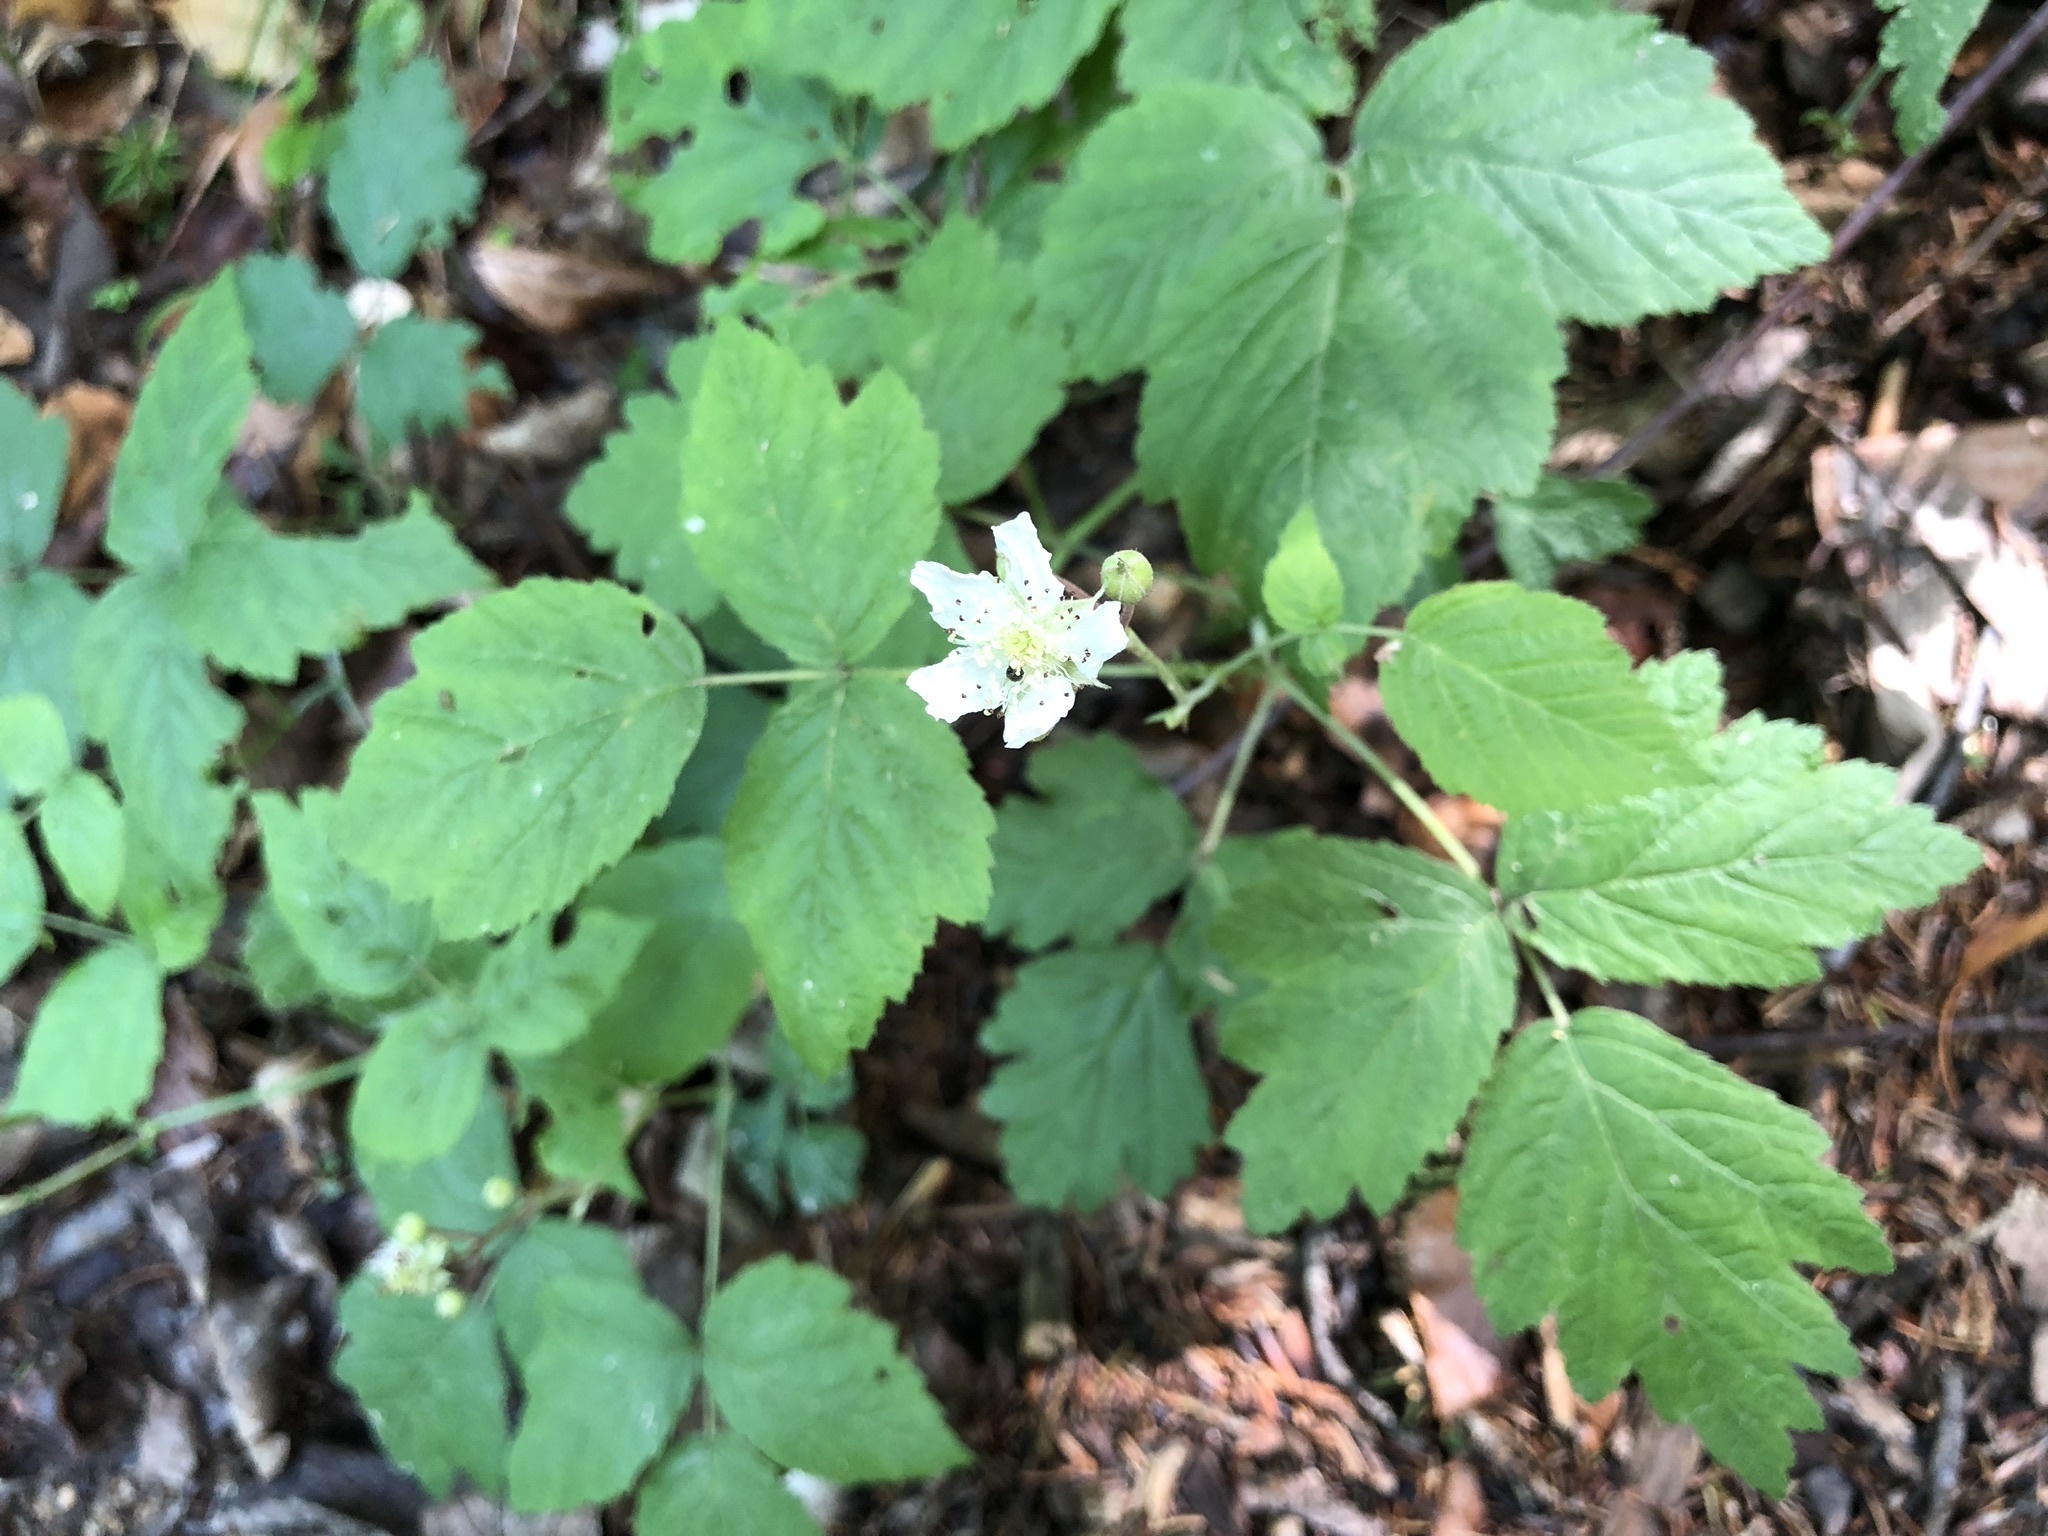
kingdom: Plantae
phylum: Tracheophyta
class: Magnoliopsida
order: Rosales
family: Rosaceae
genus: Rubus
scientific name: Rubus caesius
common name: Dewberry
